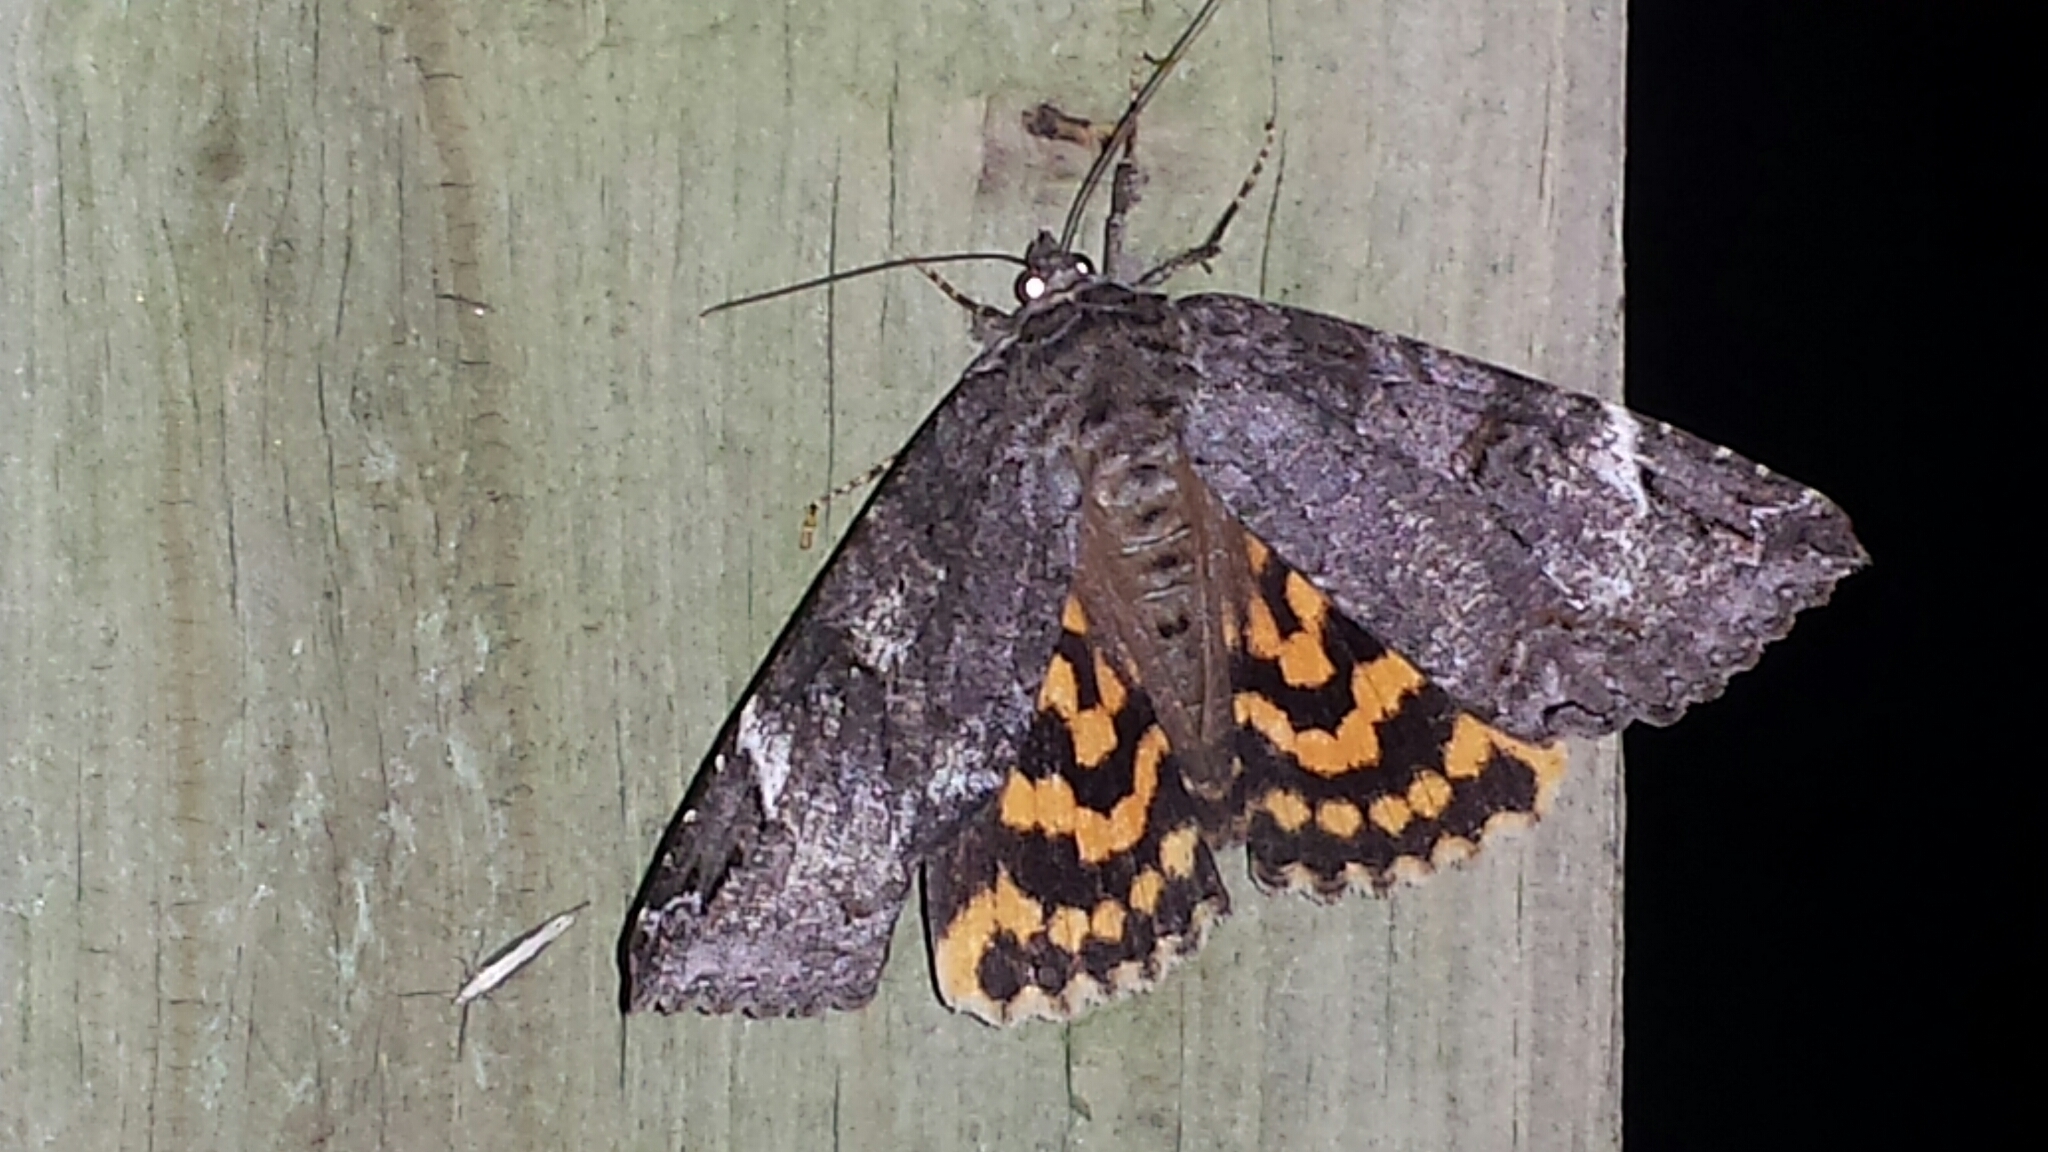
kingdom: Animalia
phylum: Arthropoda
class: Insecta
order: Lepidoptera
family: Erebidae
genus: Euparthenos
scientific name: Euparthenos nubilis
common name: Locust underwing
